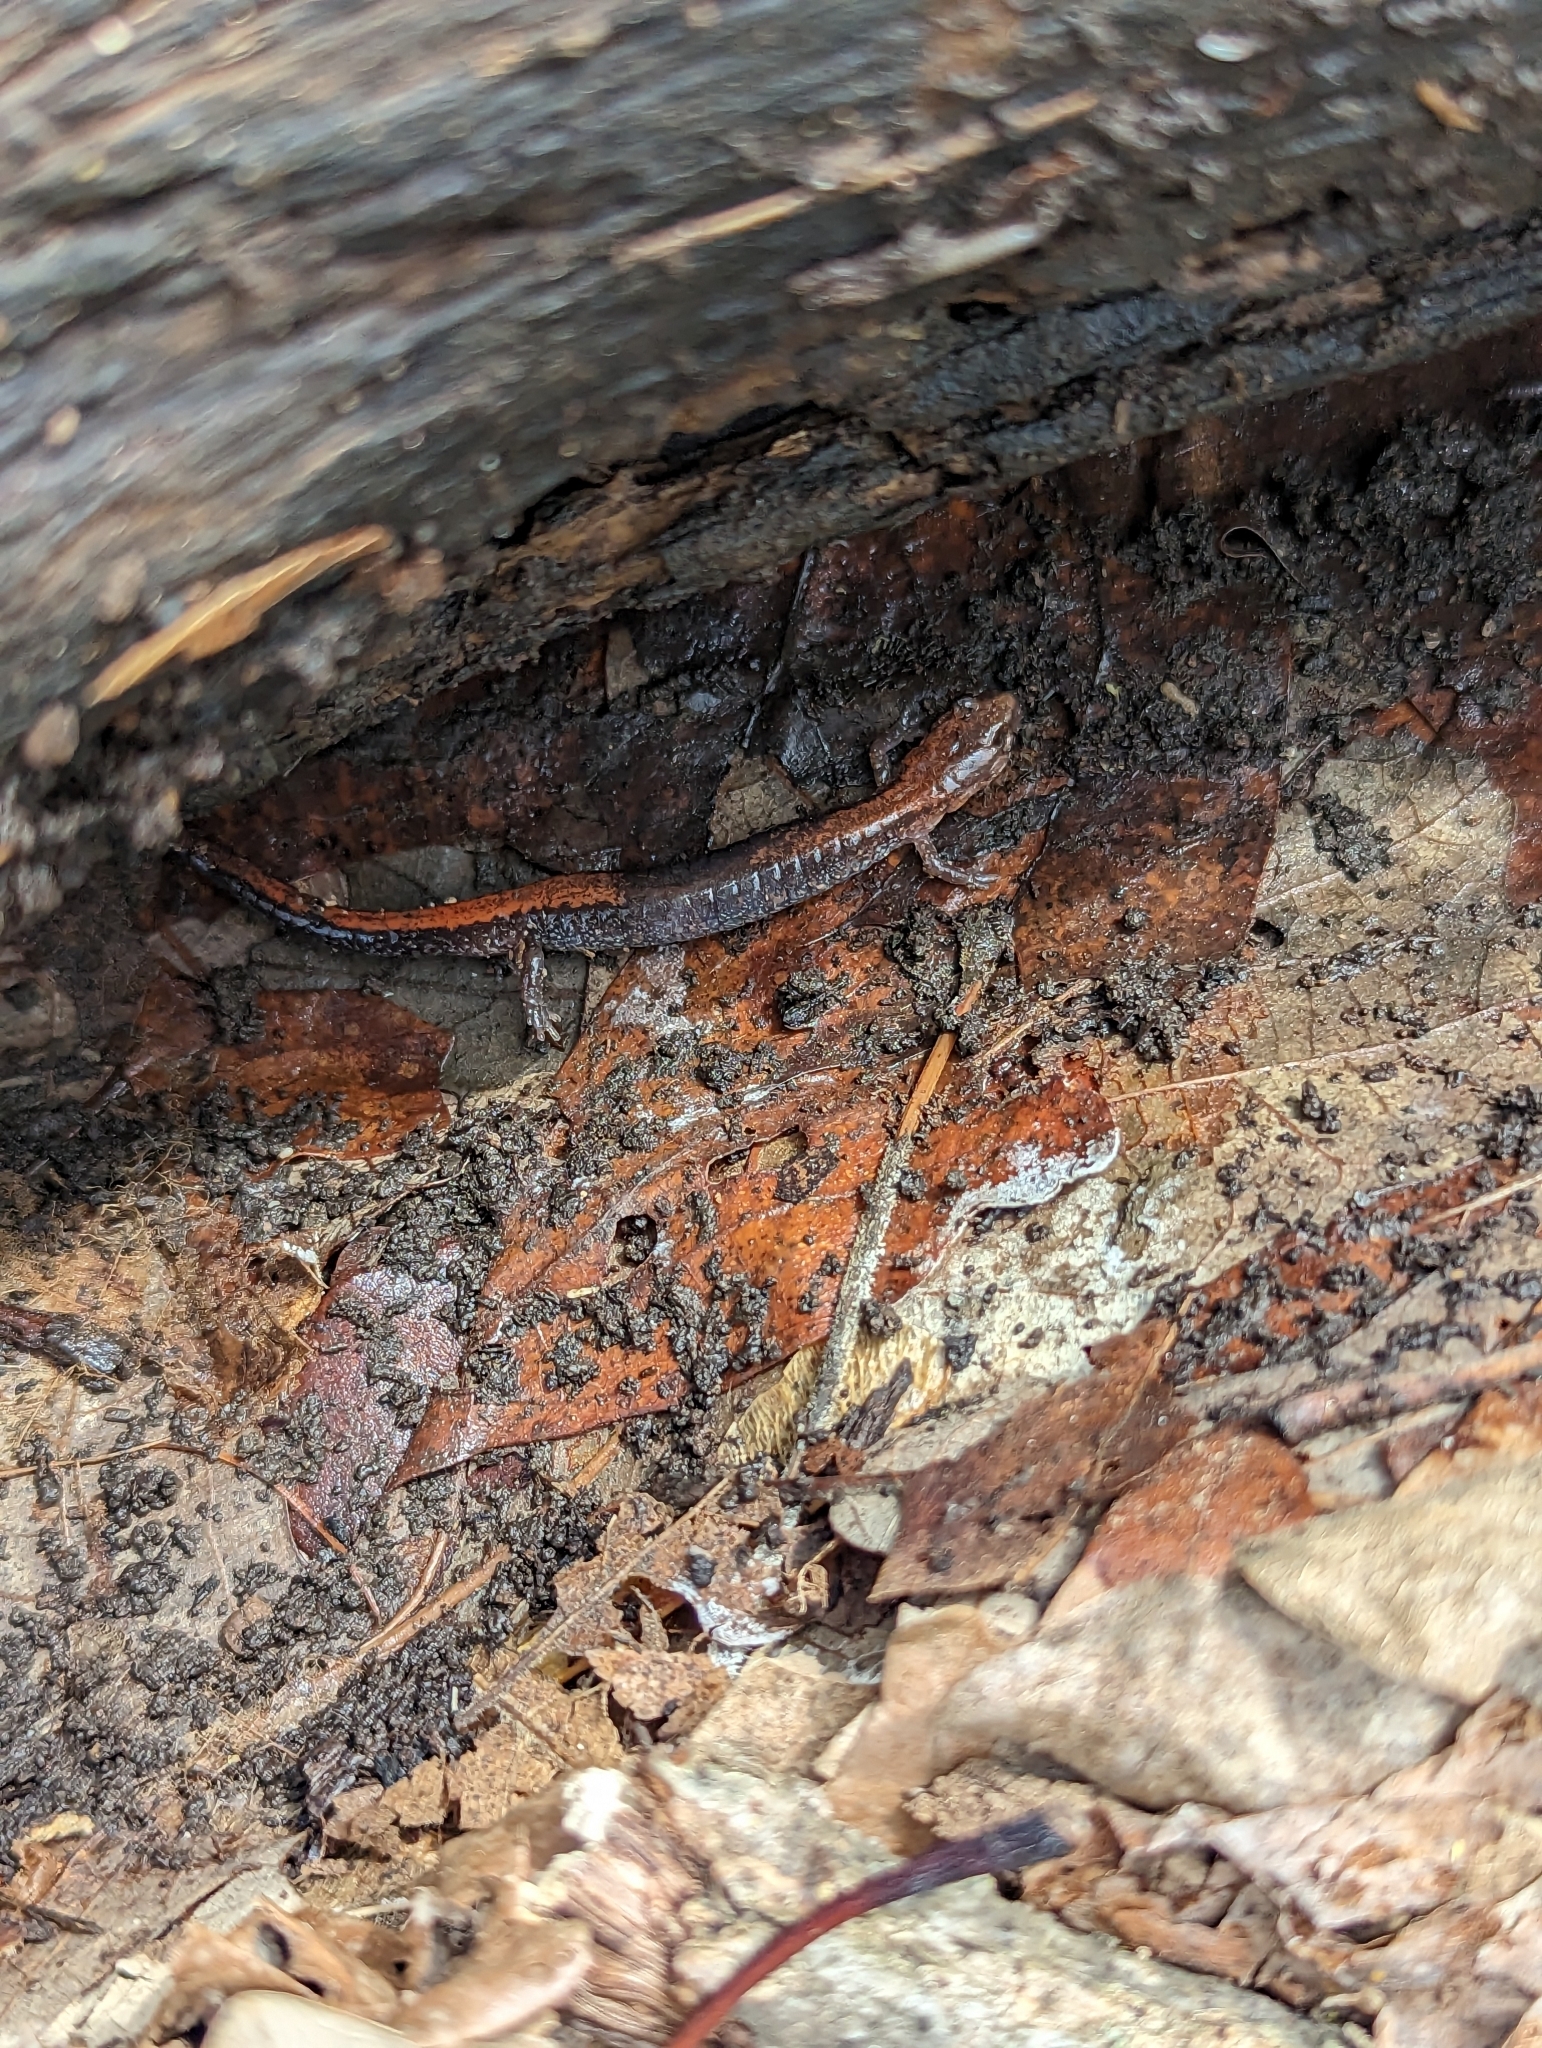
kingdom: Animalia
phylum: Chordata
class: Amphibia
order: Caudata
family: Plethodontidae
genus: Plethodon
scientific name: Plethodon cinereus
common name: Redback salamander
